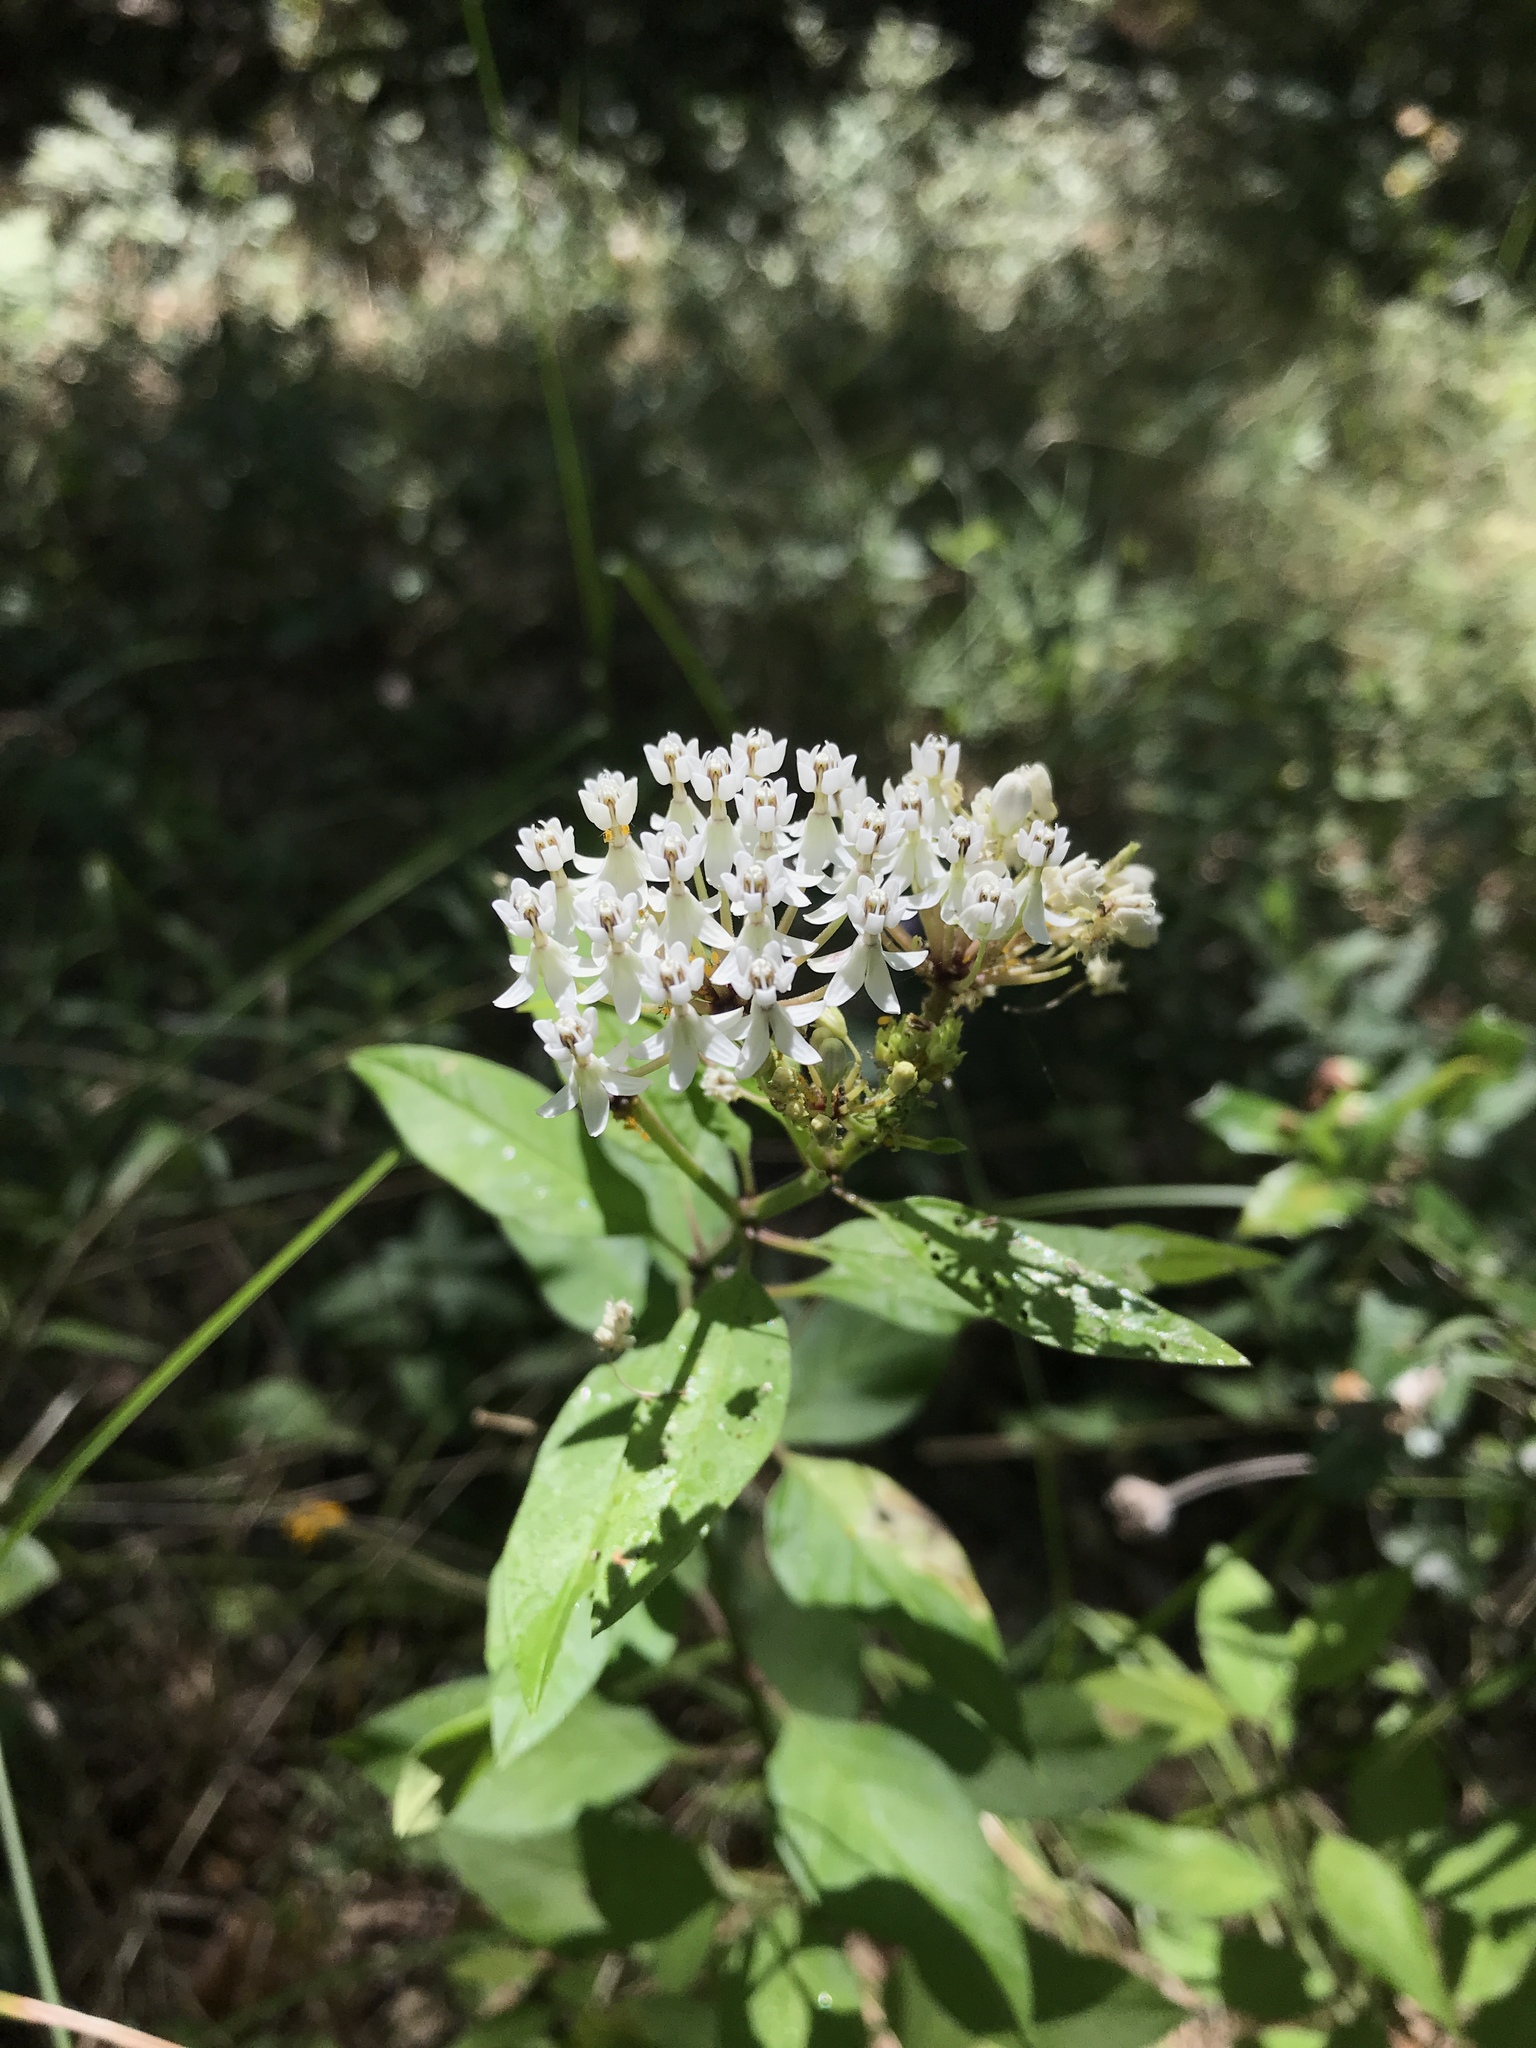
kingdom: Plantae
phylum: Tracheophyta
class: Magnoliopsida
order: Gentianales
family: Apocynaceae
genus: Asclepias
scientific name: Asclepias texana
